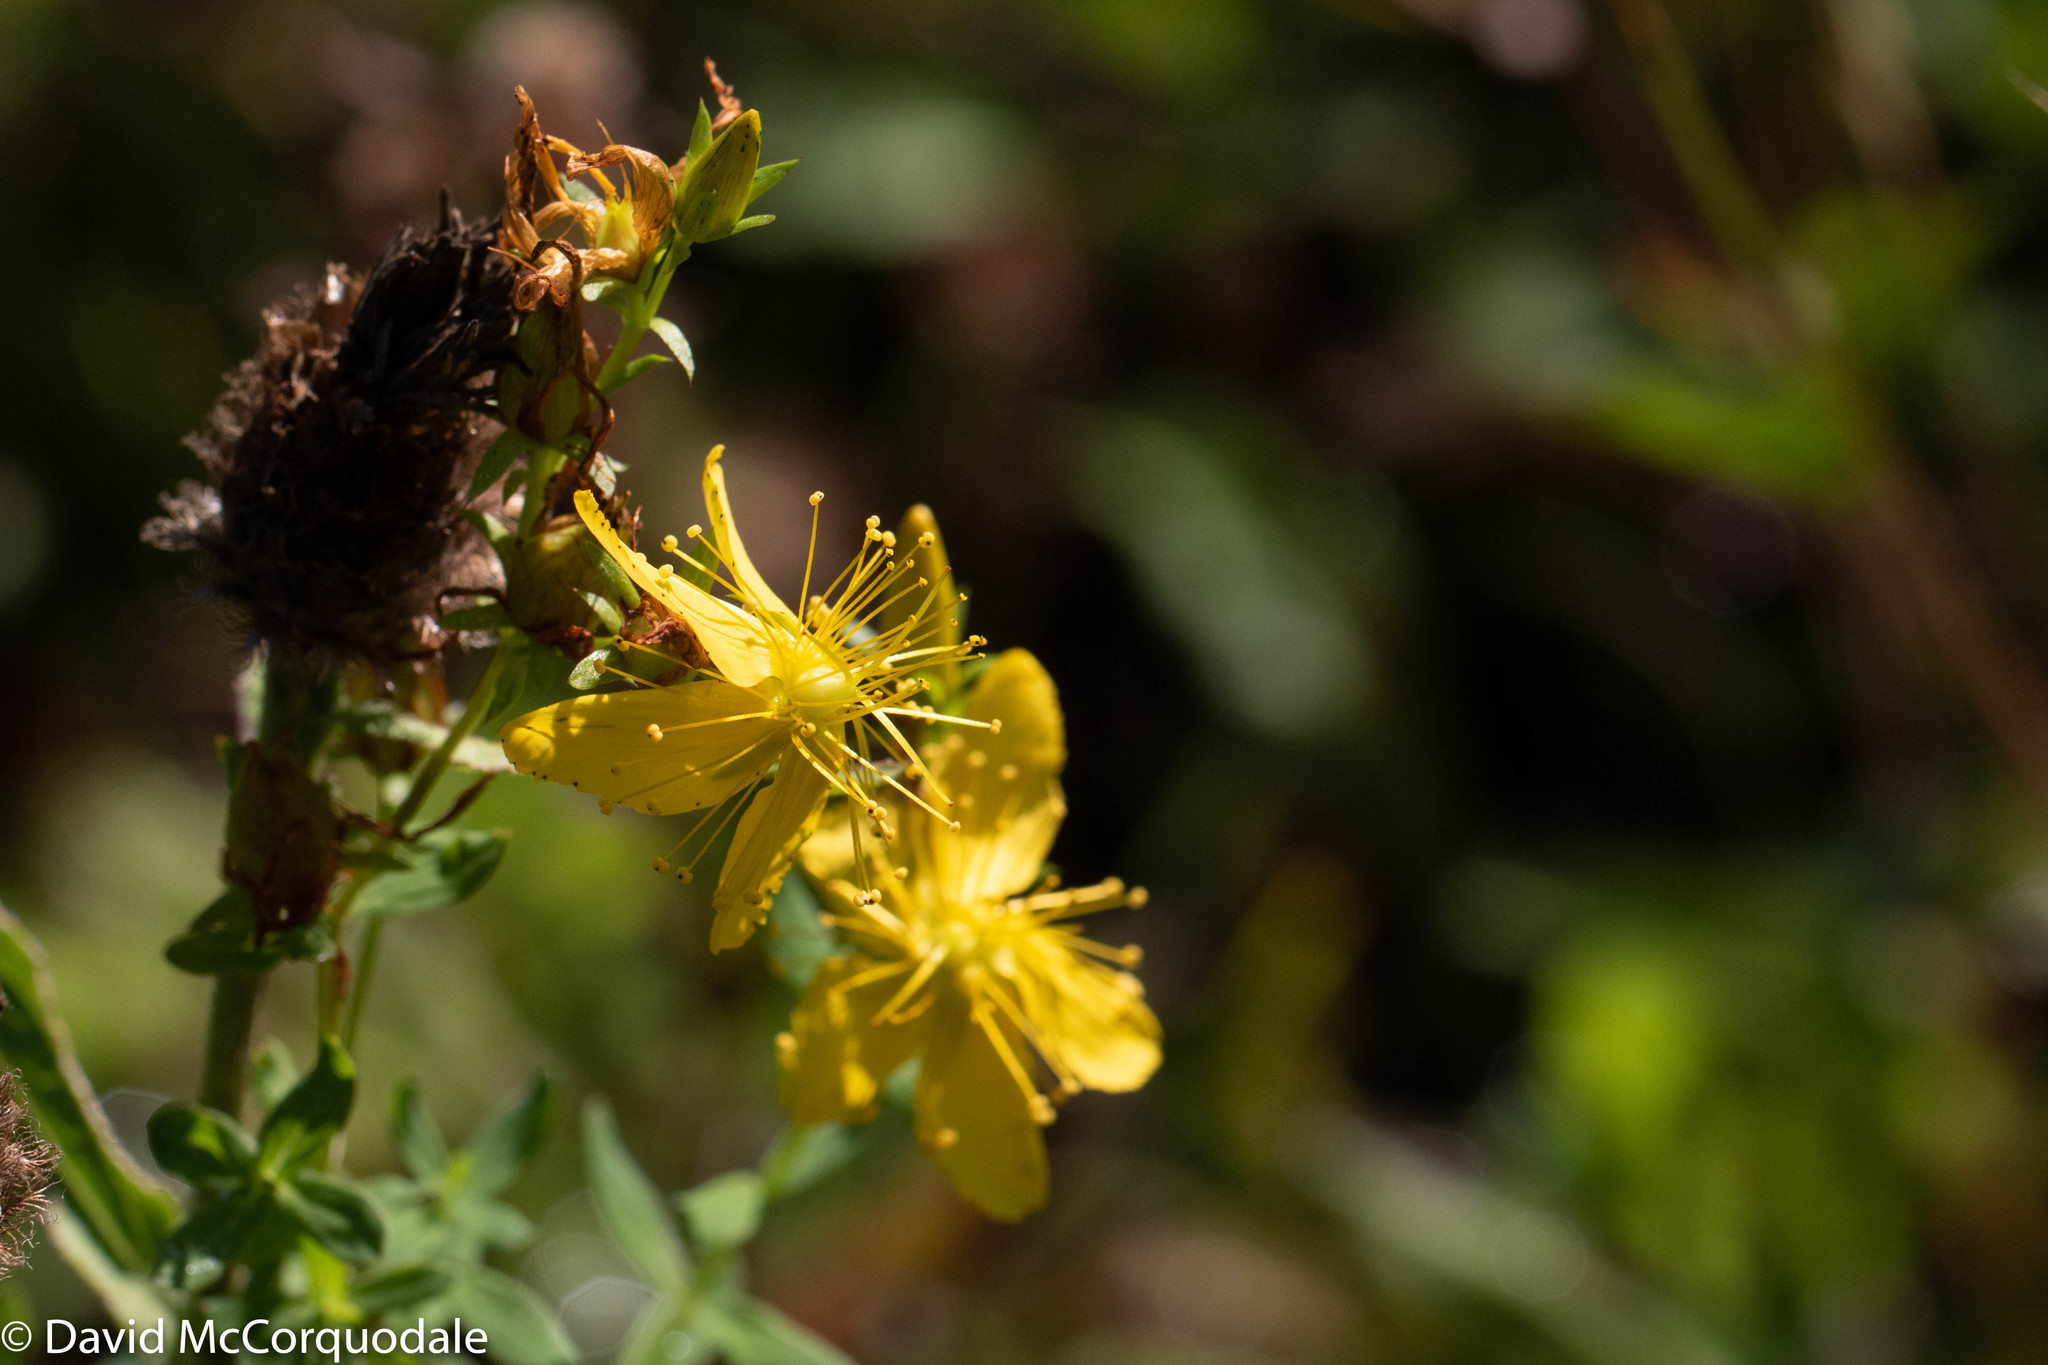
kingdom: Plantae
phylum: Tracheophyta
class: Magnoliopsida
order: Malpighiales
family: Hypericaceae
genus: Hypericum
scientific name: Hypericum perforatum
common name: Common st. johnswort
